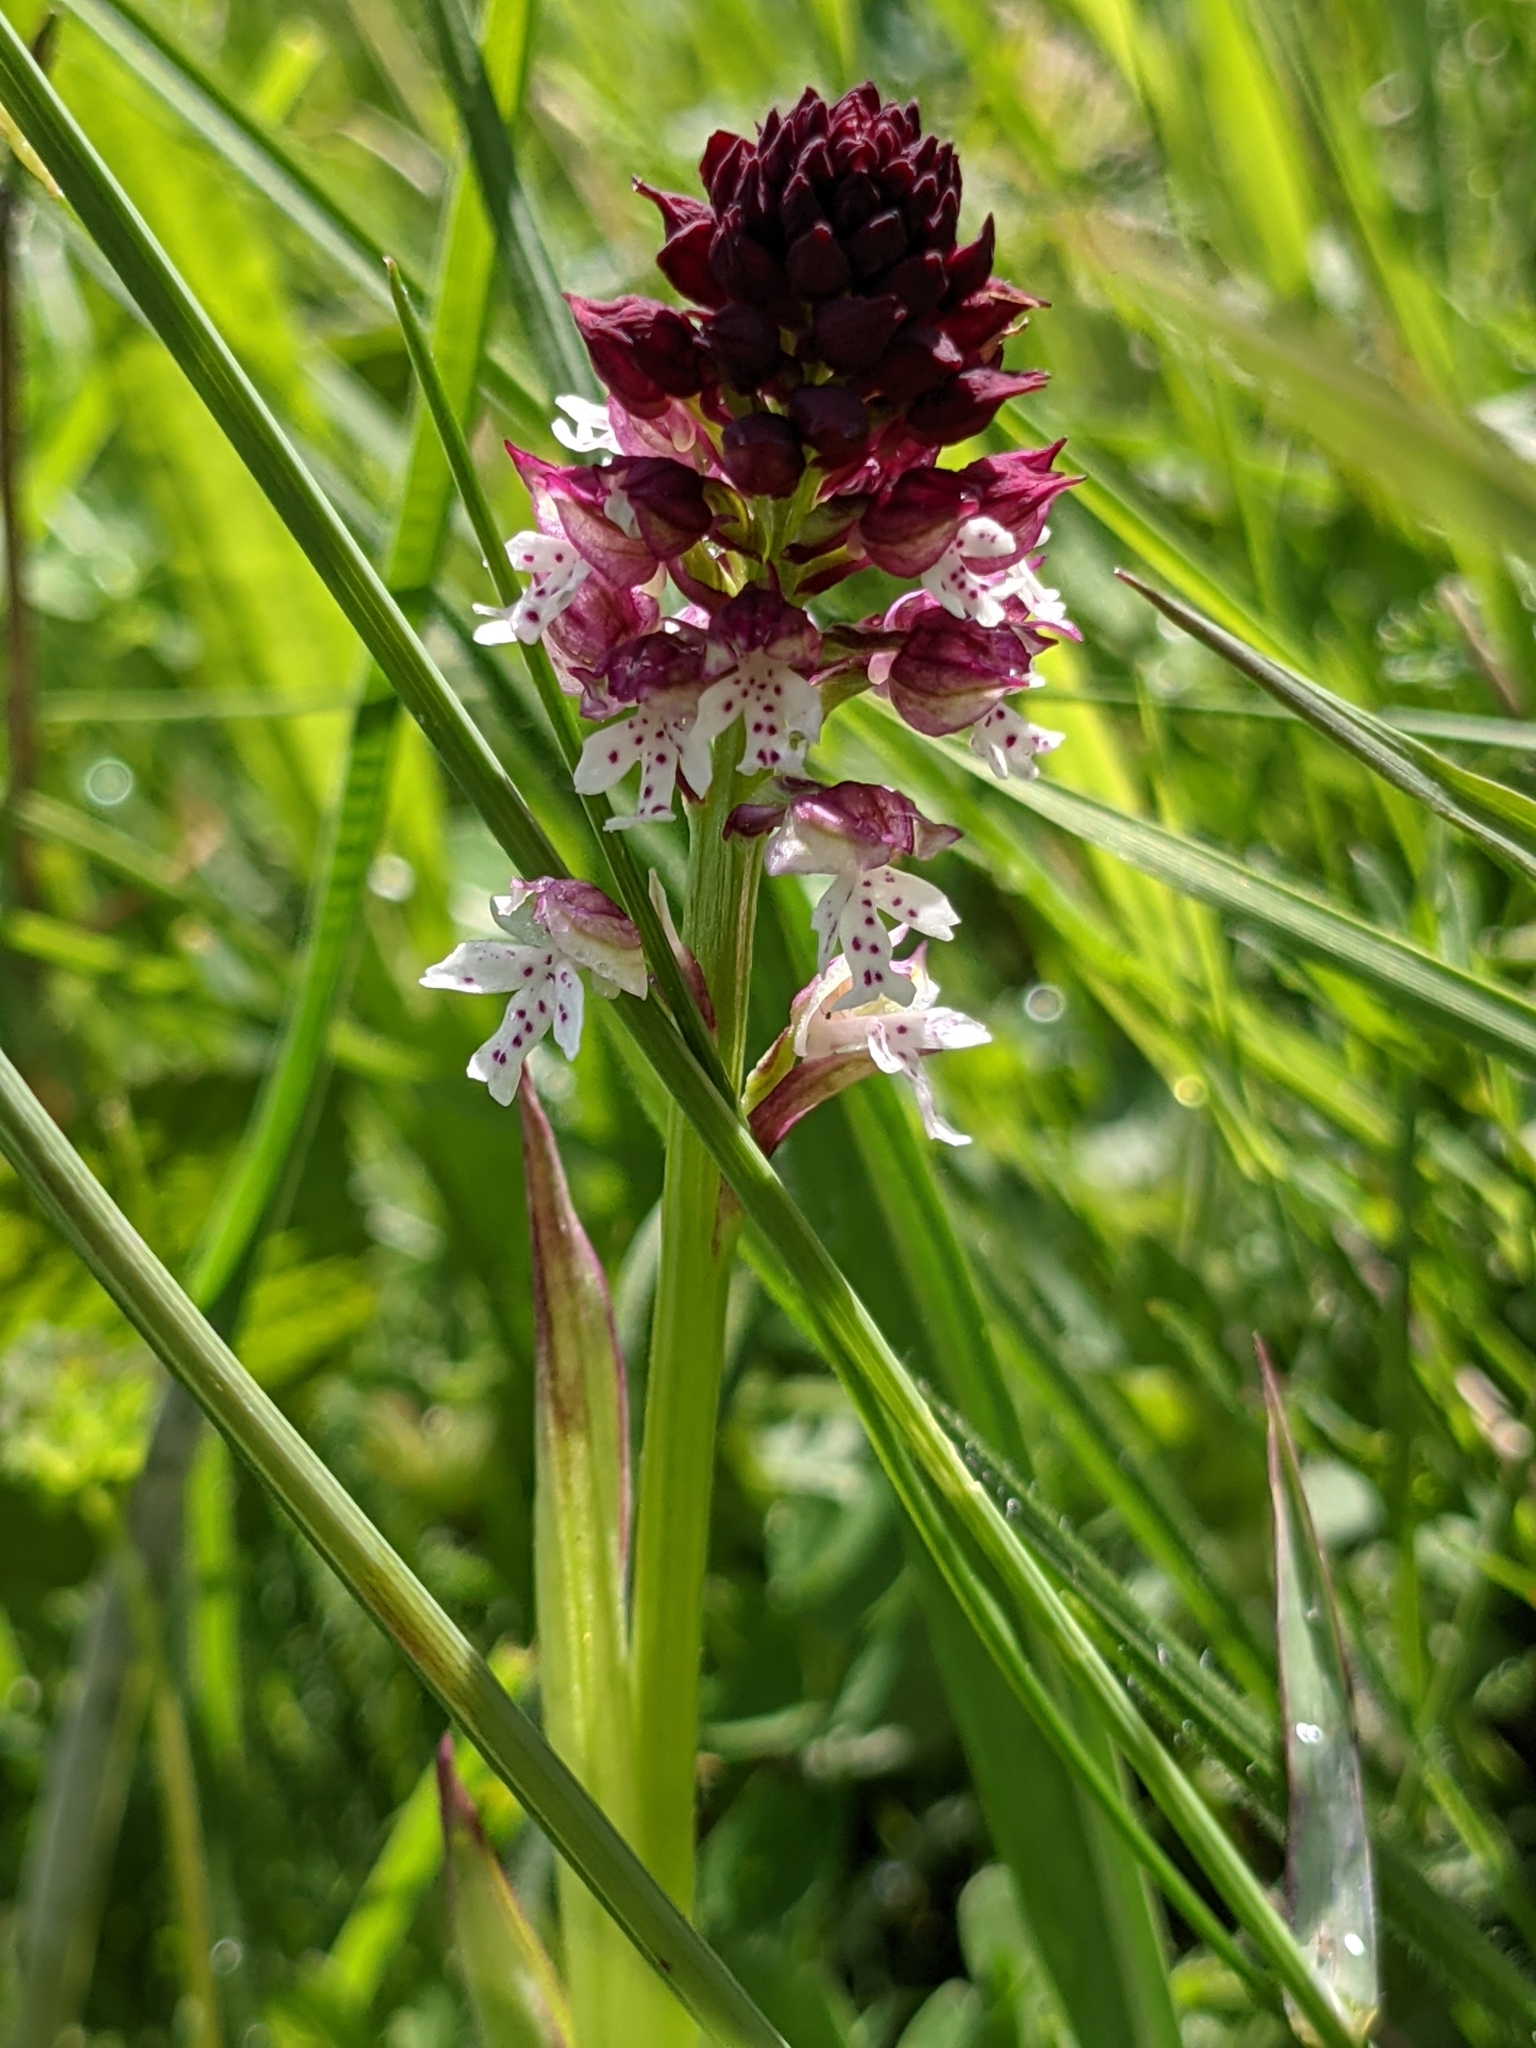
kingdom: Plantae
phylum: Tracheophyta
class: Liliopsida
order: Asparagales
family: Orchidaceae
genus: Neotinea
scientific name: Neotinea ustulata
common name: Burnt orchid
